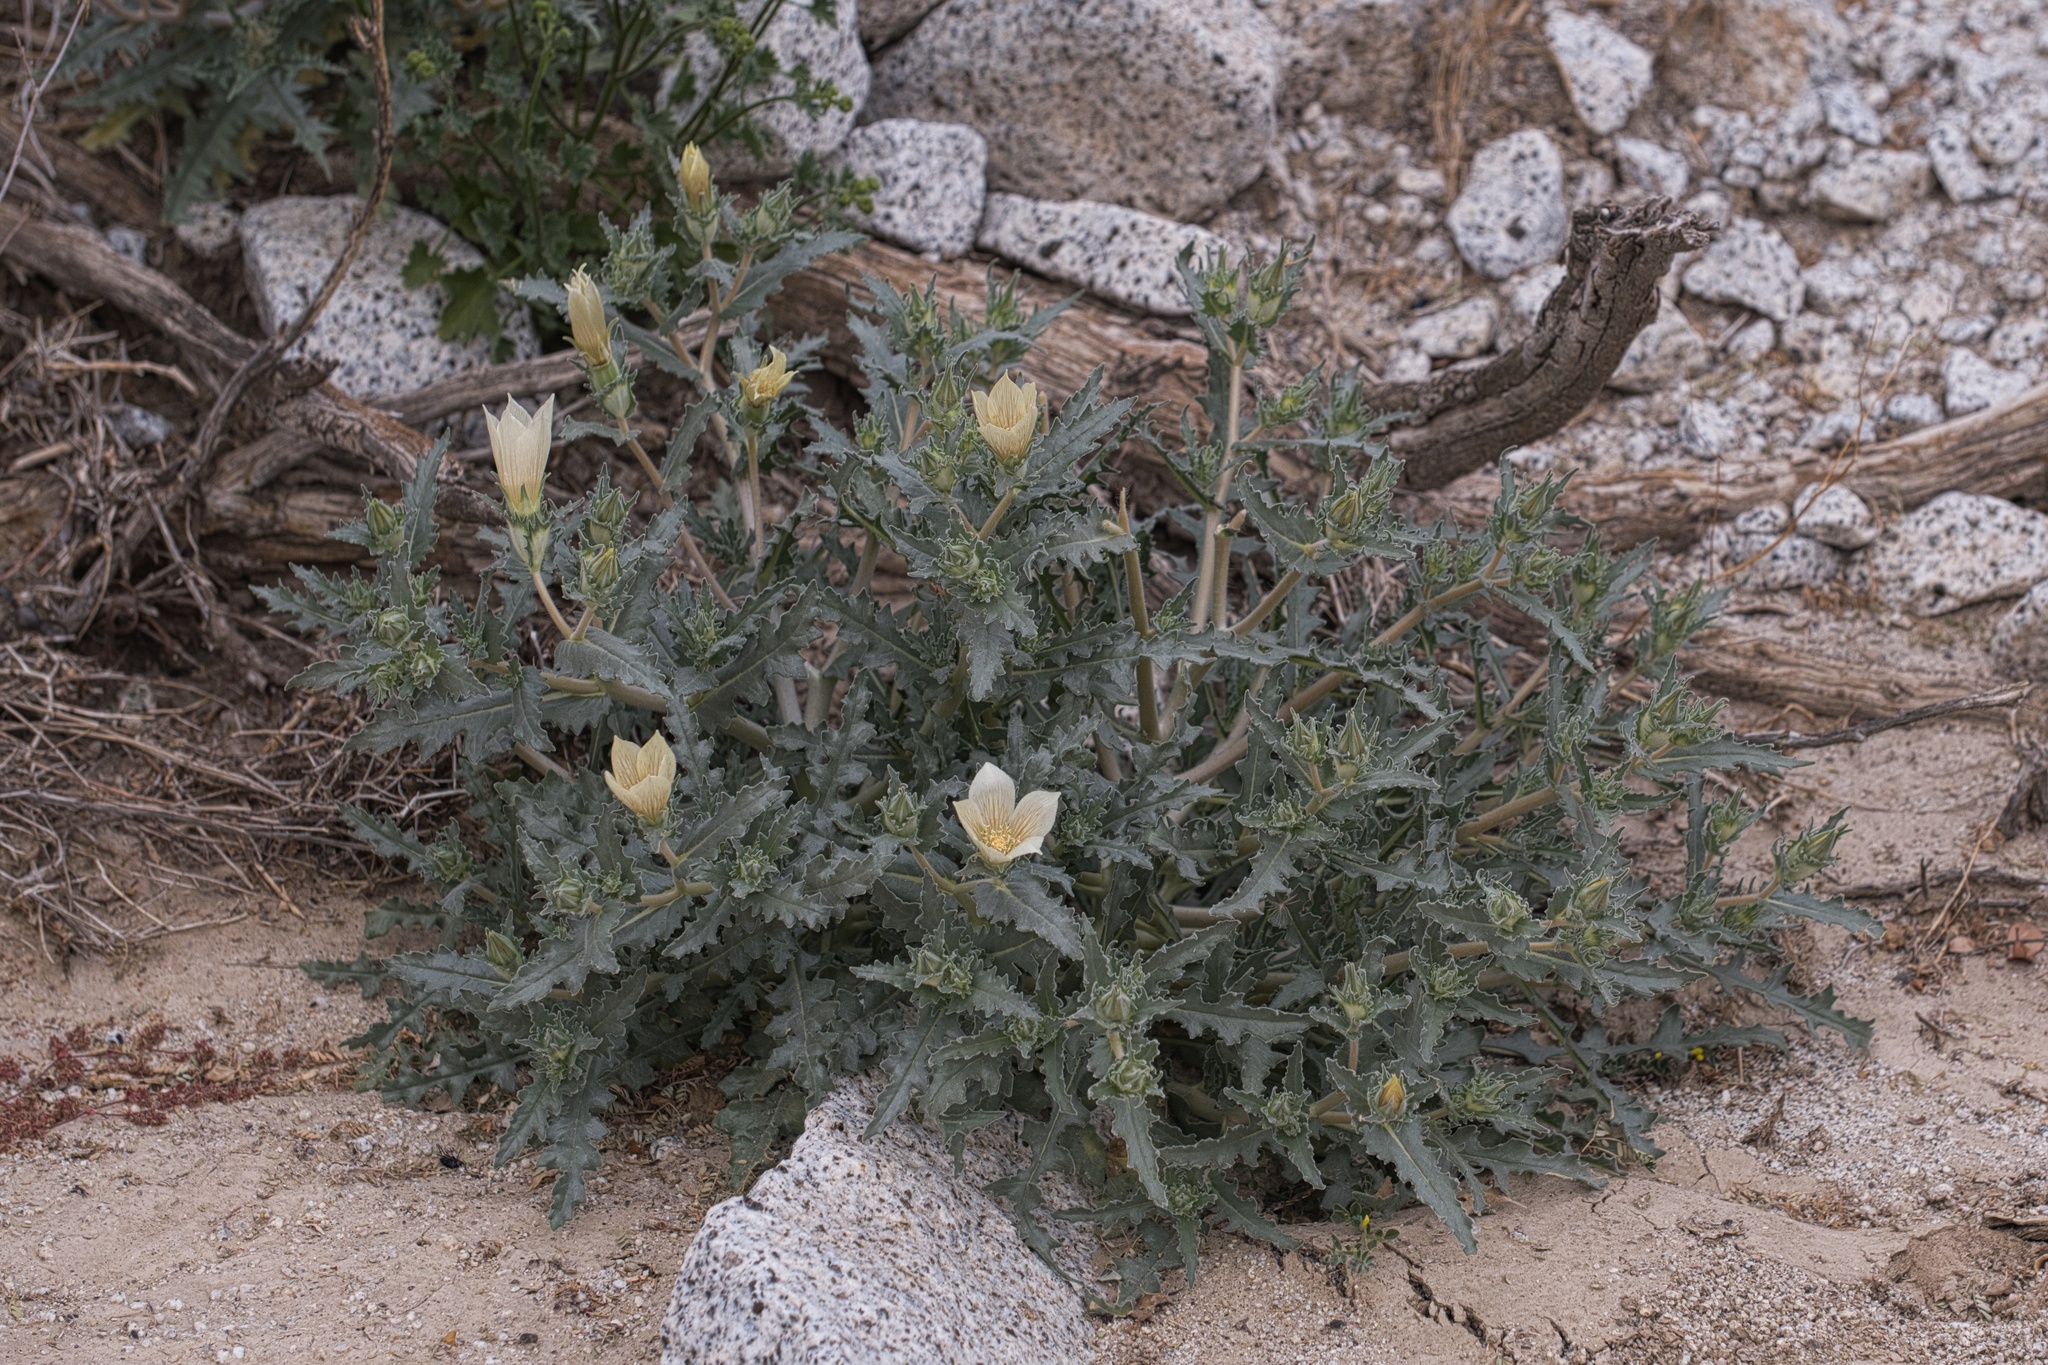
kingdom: Plantae
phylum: Tracheophyta
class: Magnoliopsida
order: Cornales
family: Loasaceae
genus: Mentzelia
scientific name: Mentzelia involucrata
